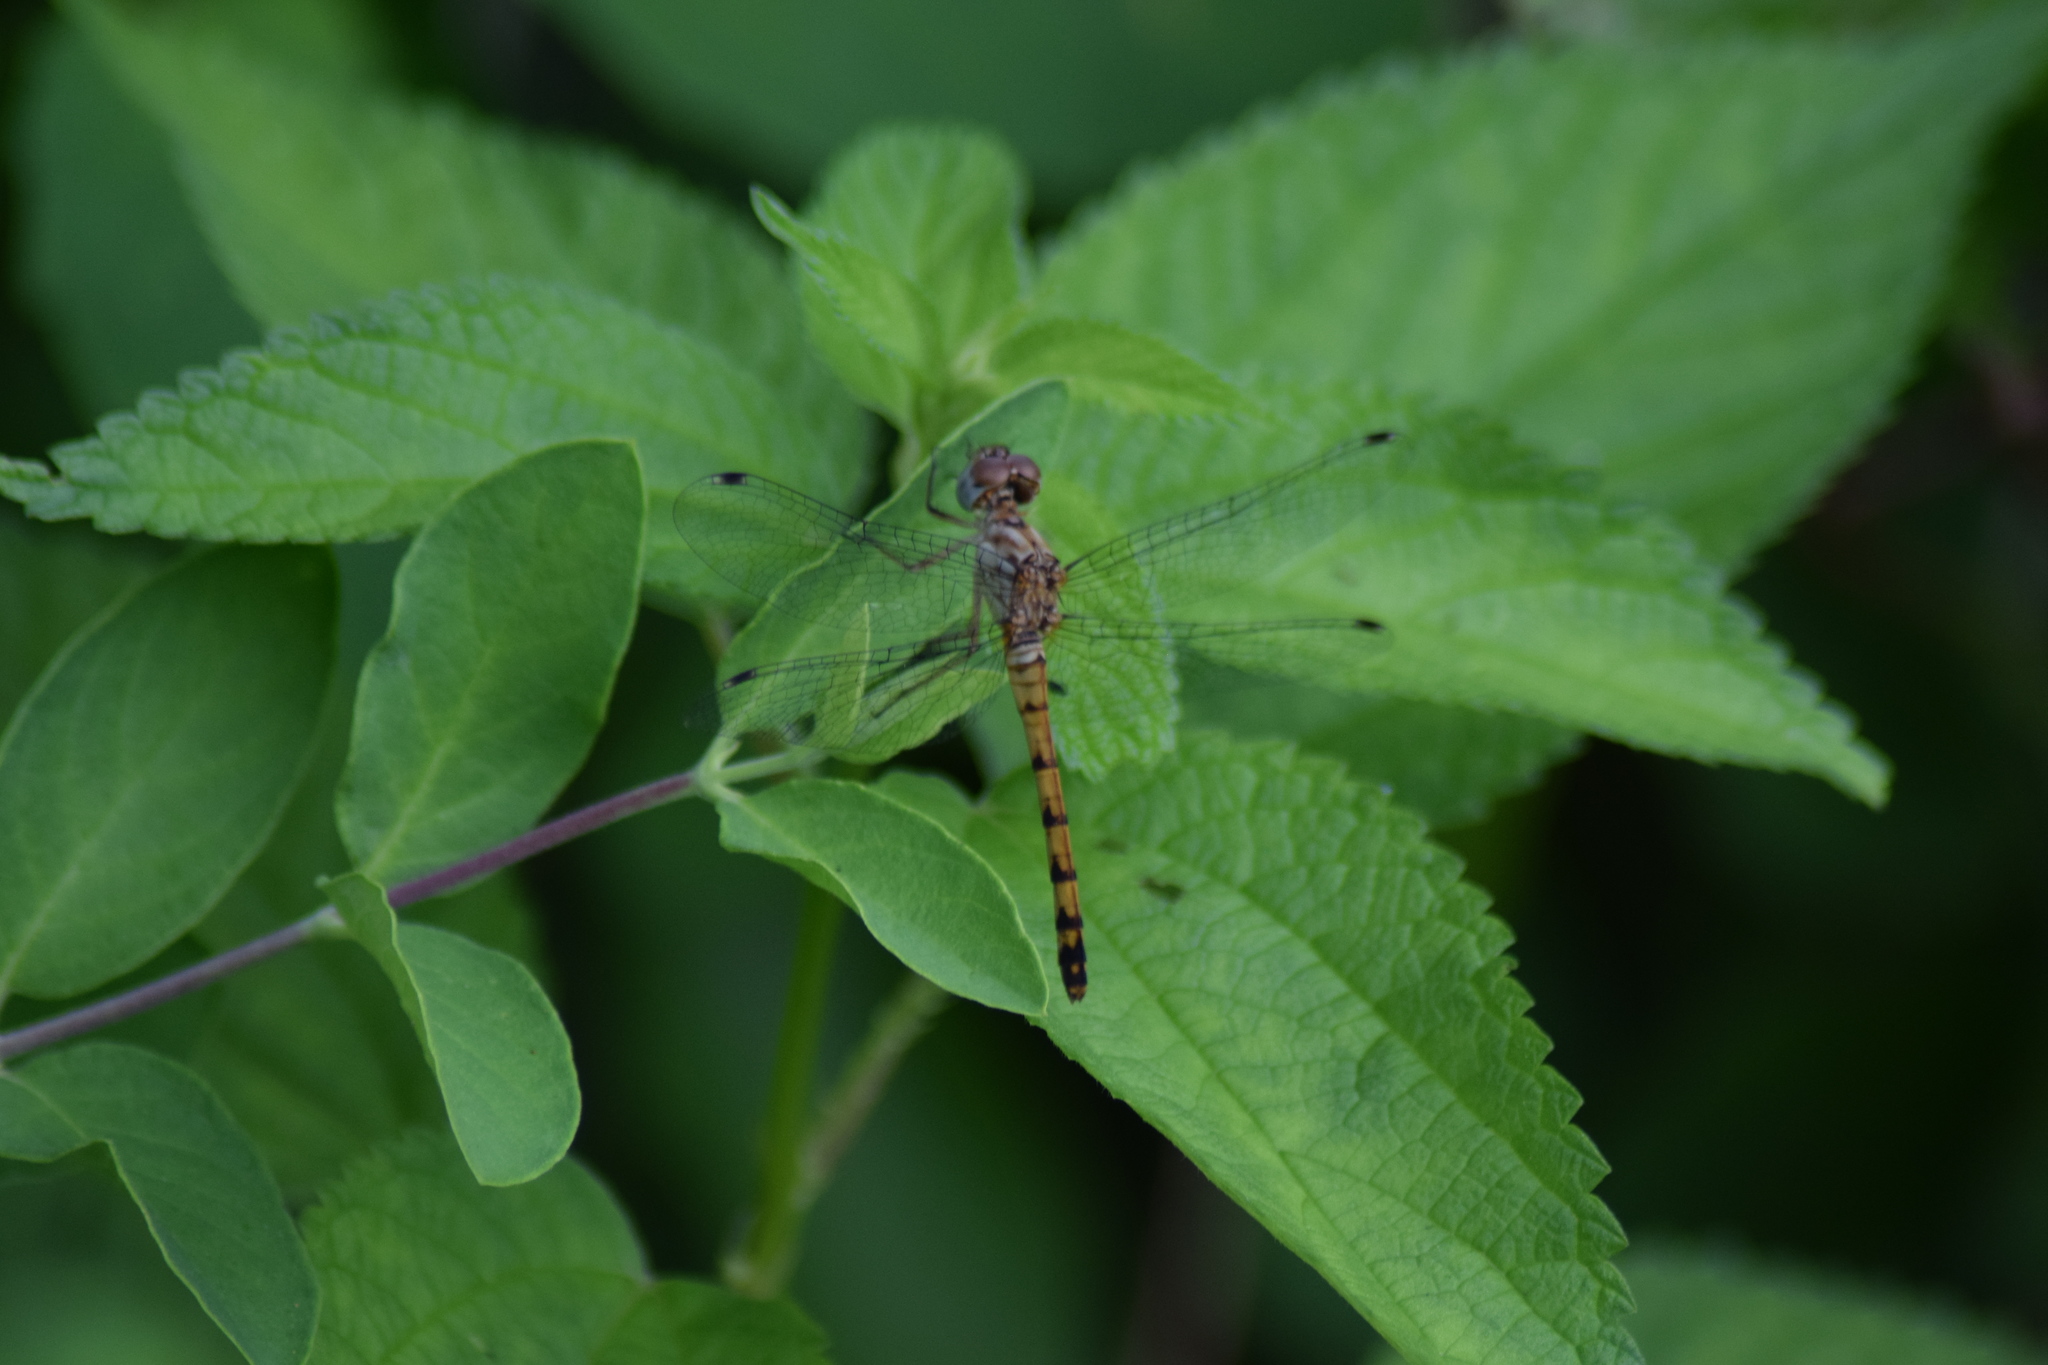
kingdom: Animalia
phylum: Arthropoda
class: Insecta
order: Odonata
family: Libellulidae
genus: Sympetrum
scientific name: Sympetrum ambiguum
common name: Blue-faced meadowhawk
